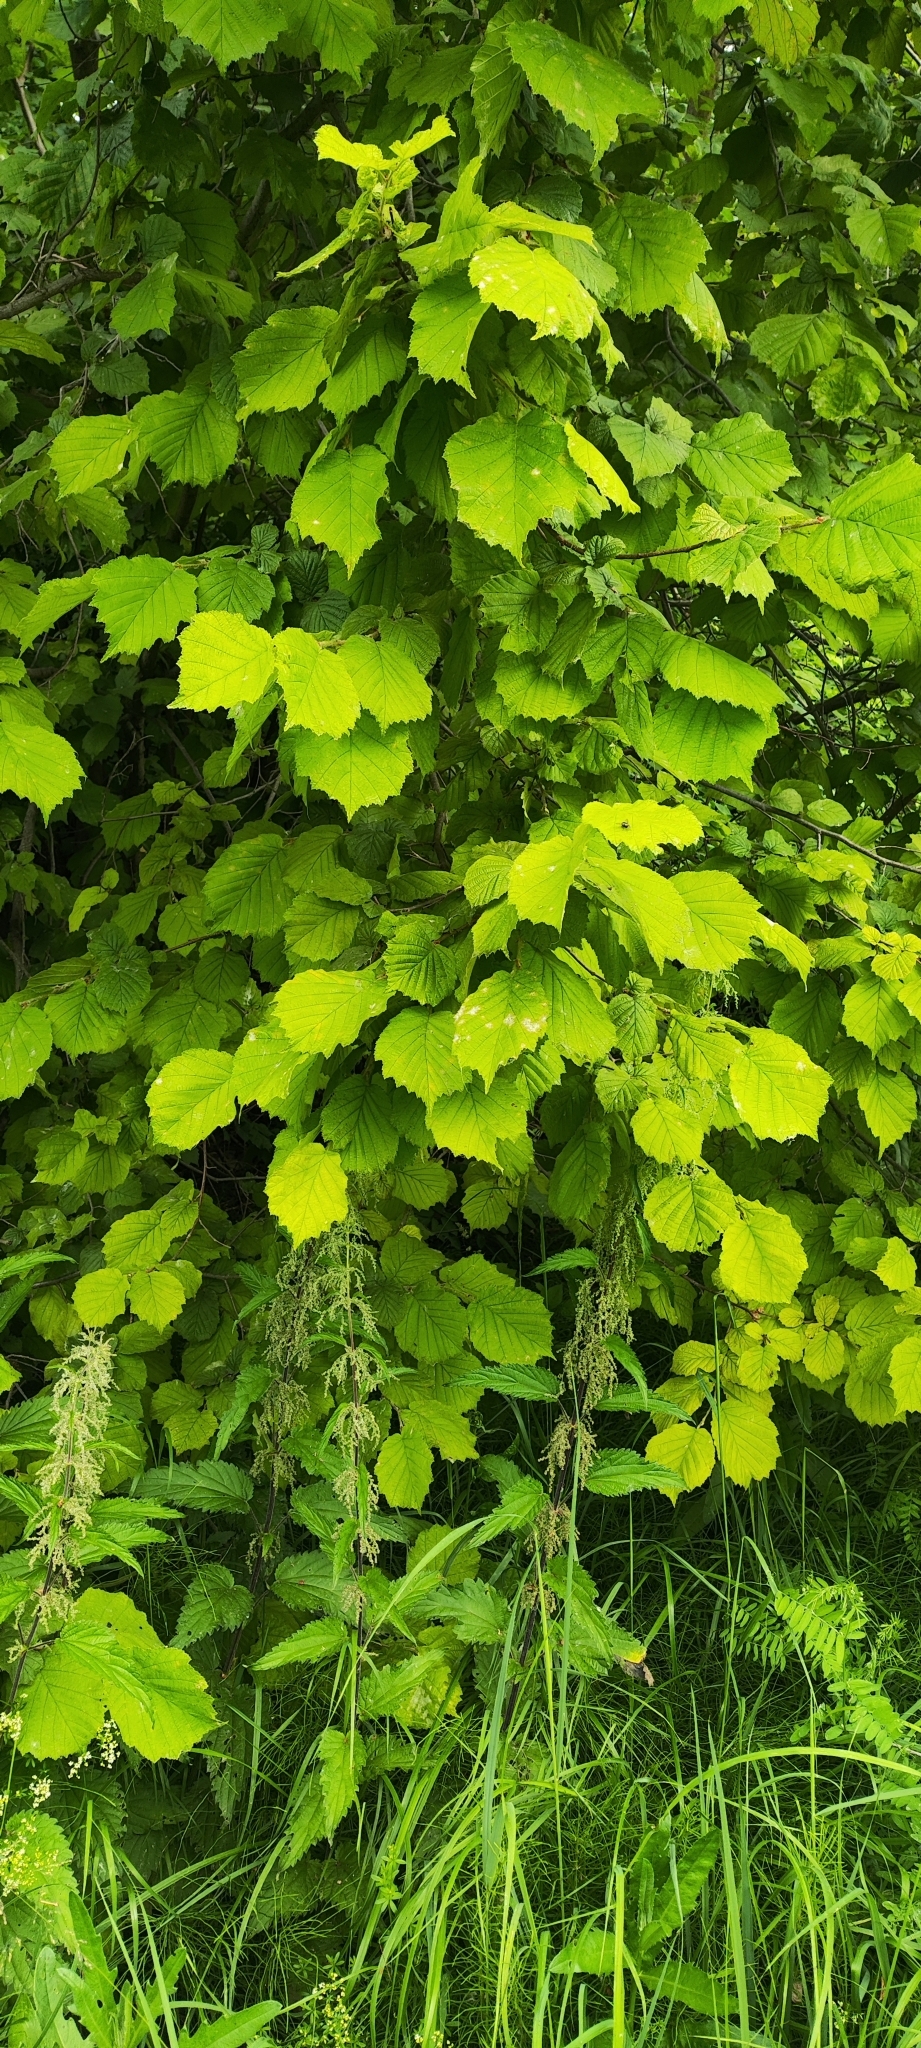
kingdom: Plantae
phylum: Tracheophyta
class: Magnoliopsida
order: Fagales
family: Betulaceae
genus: Corylus
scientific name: Corylus avellana
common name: European hazel
